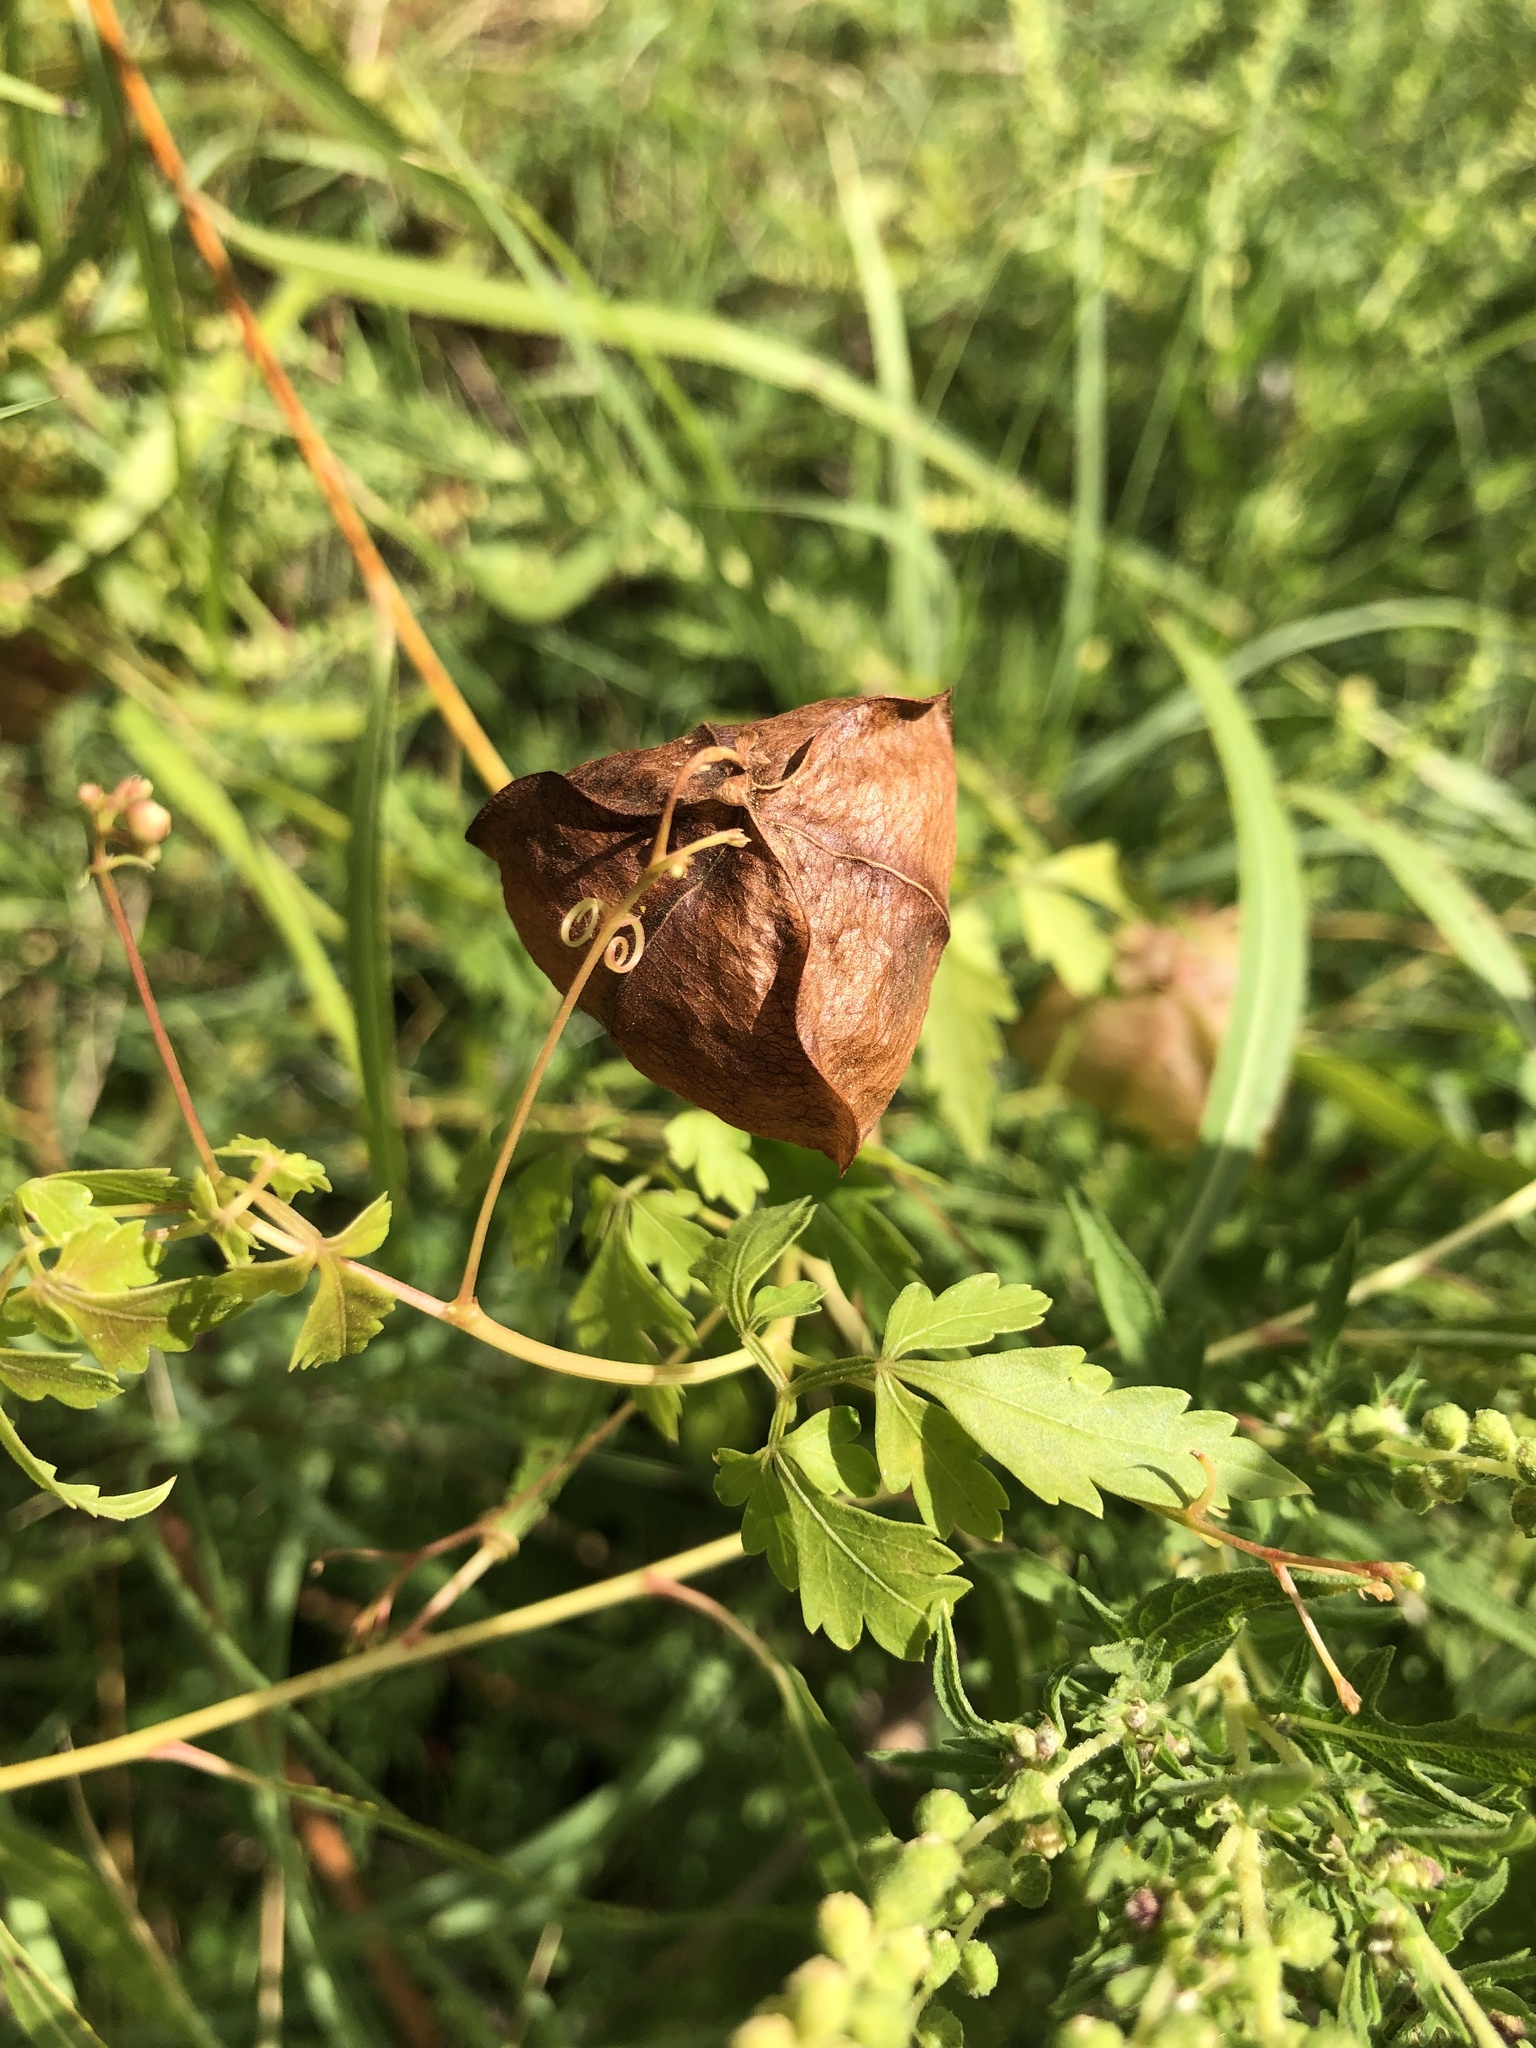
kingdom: Plantae
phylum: Tracheophyta
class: Magnoliopsida
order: Sapindales
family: Sapindaceae
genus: Cardiospermum
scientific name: Cardiospermum halicacabum
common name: Balloon vine
